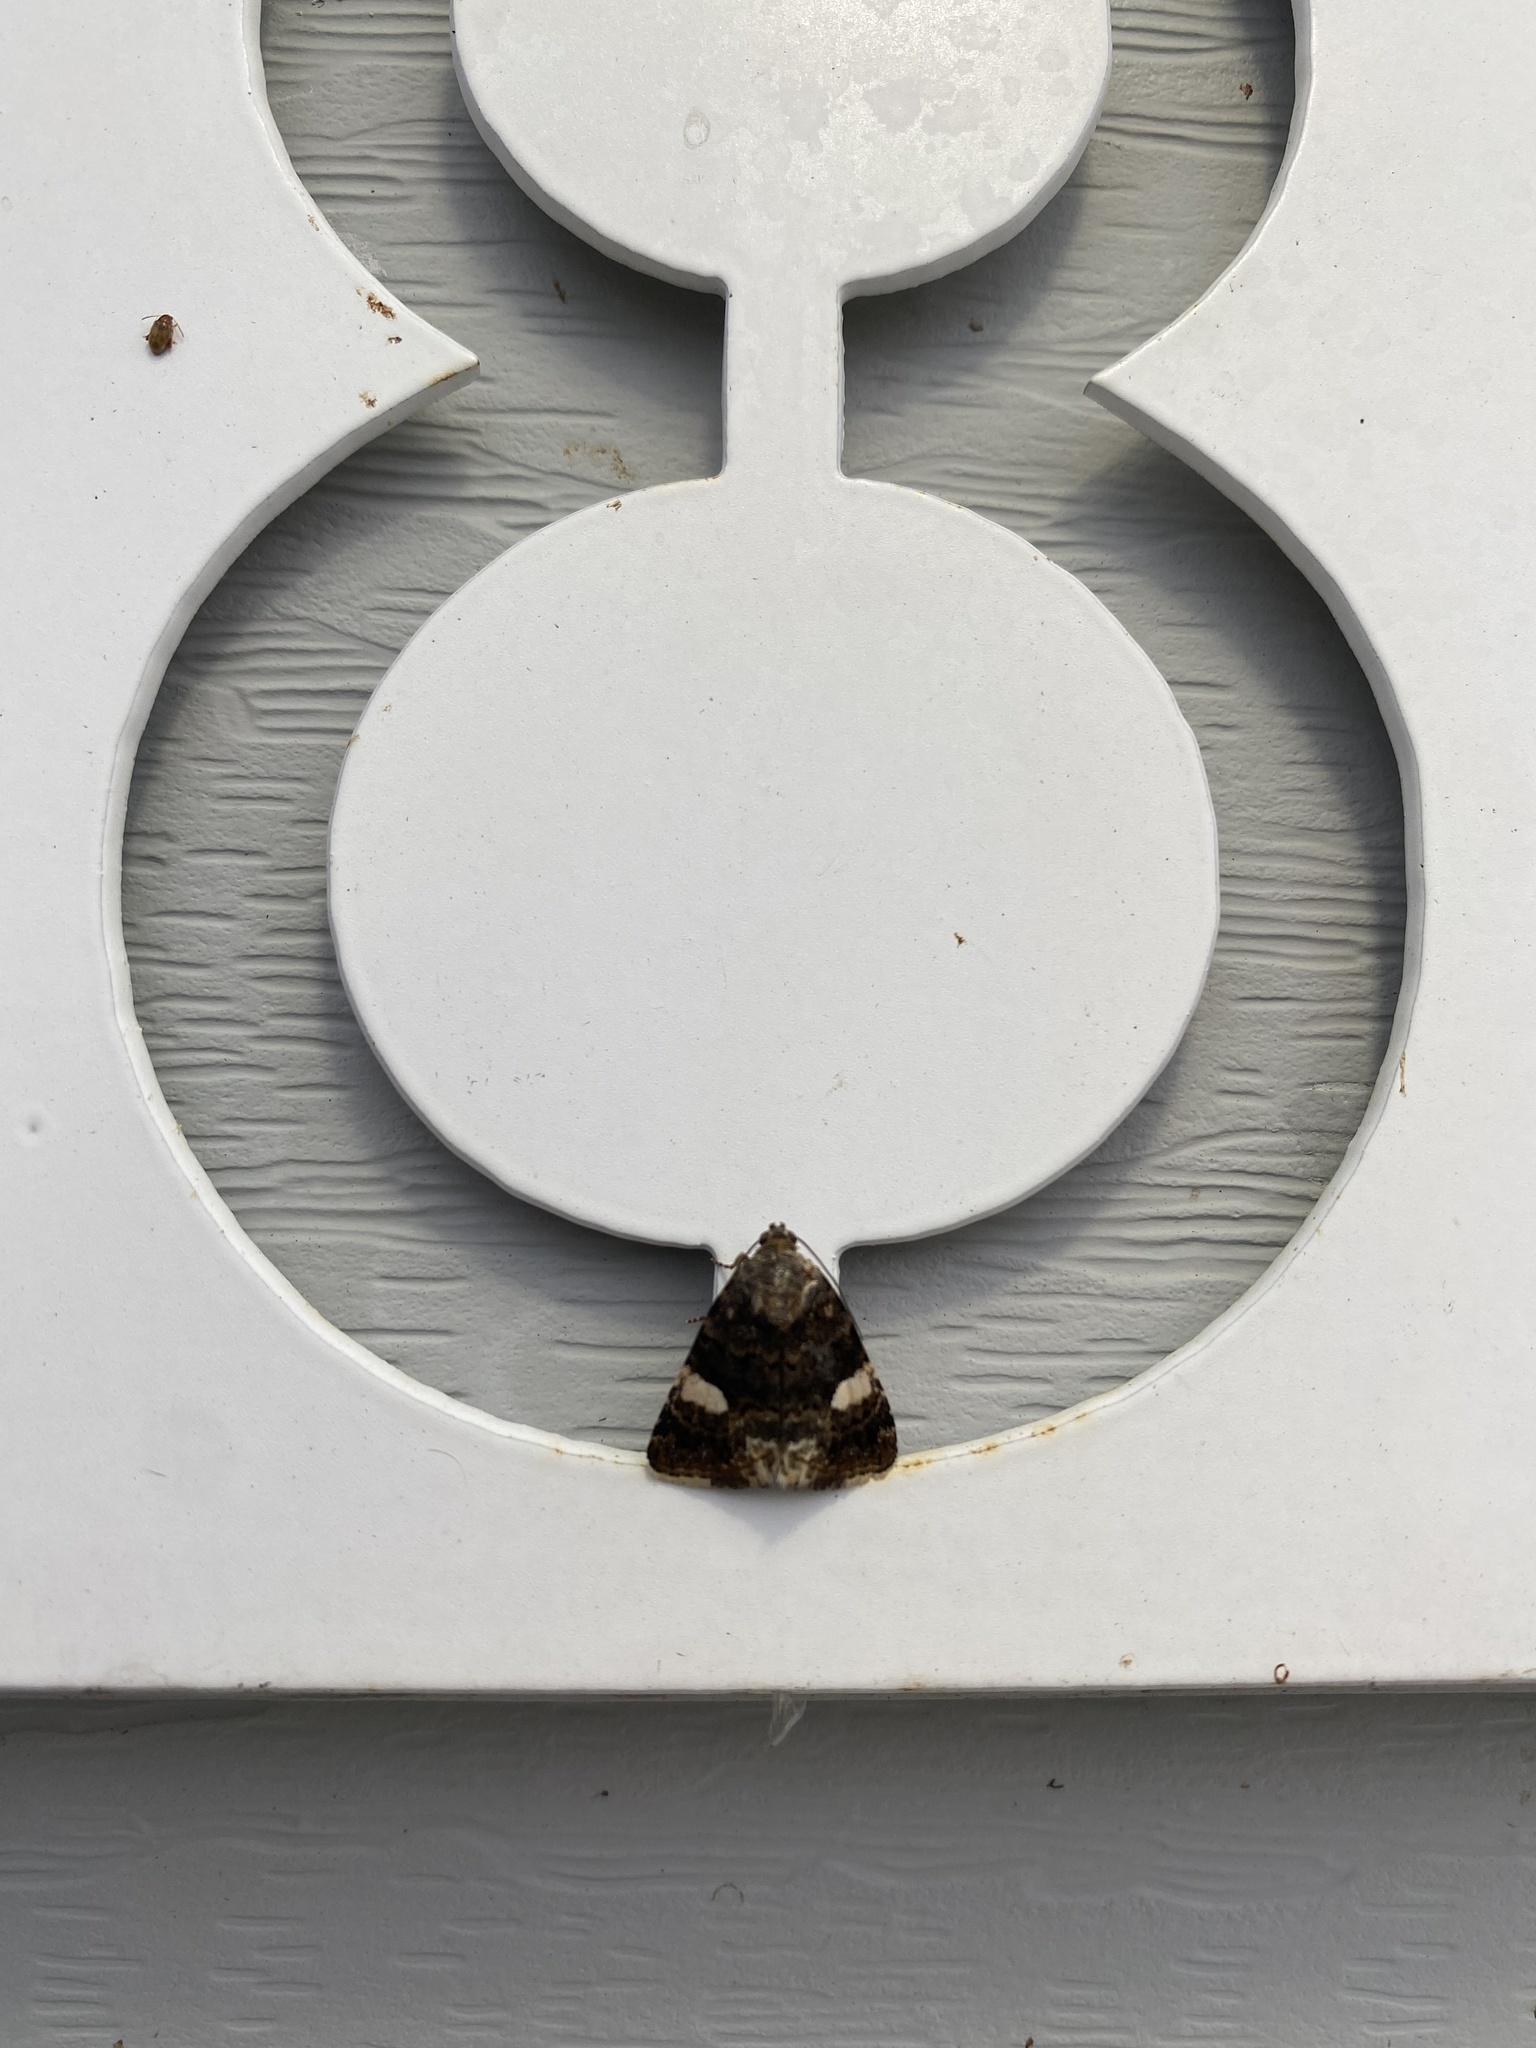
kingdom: Animalia
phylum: Arthropoda
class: Insecta
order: Lepidoptera
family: Erebidae
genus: Tyta
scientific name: Tyta luctuosa
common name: Four-spotted
